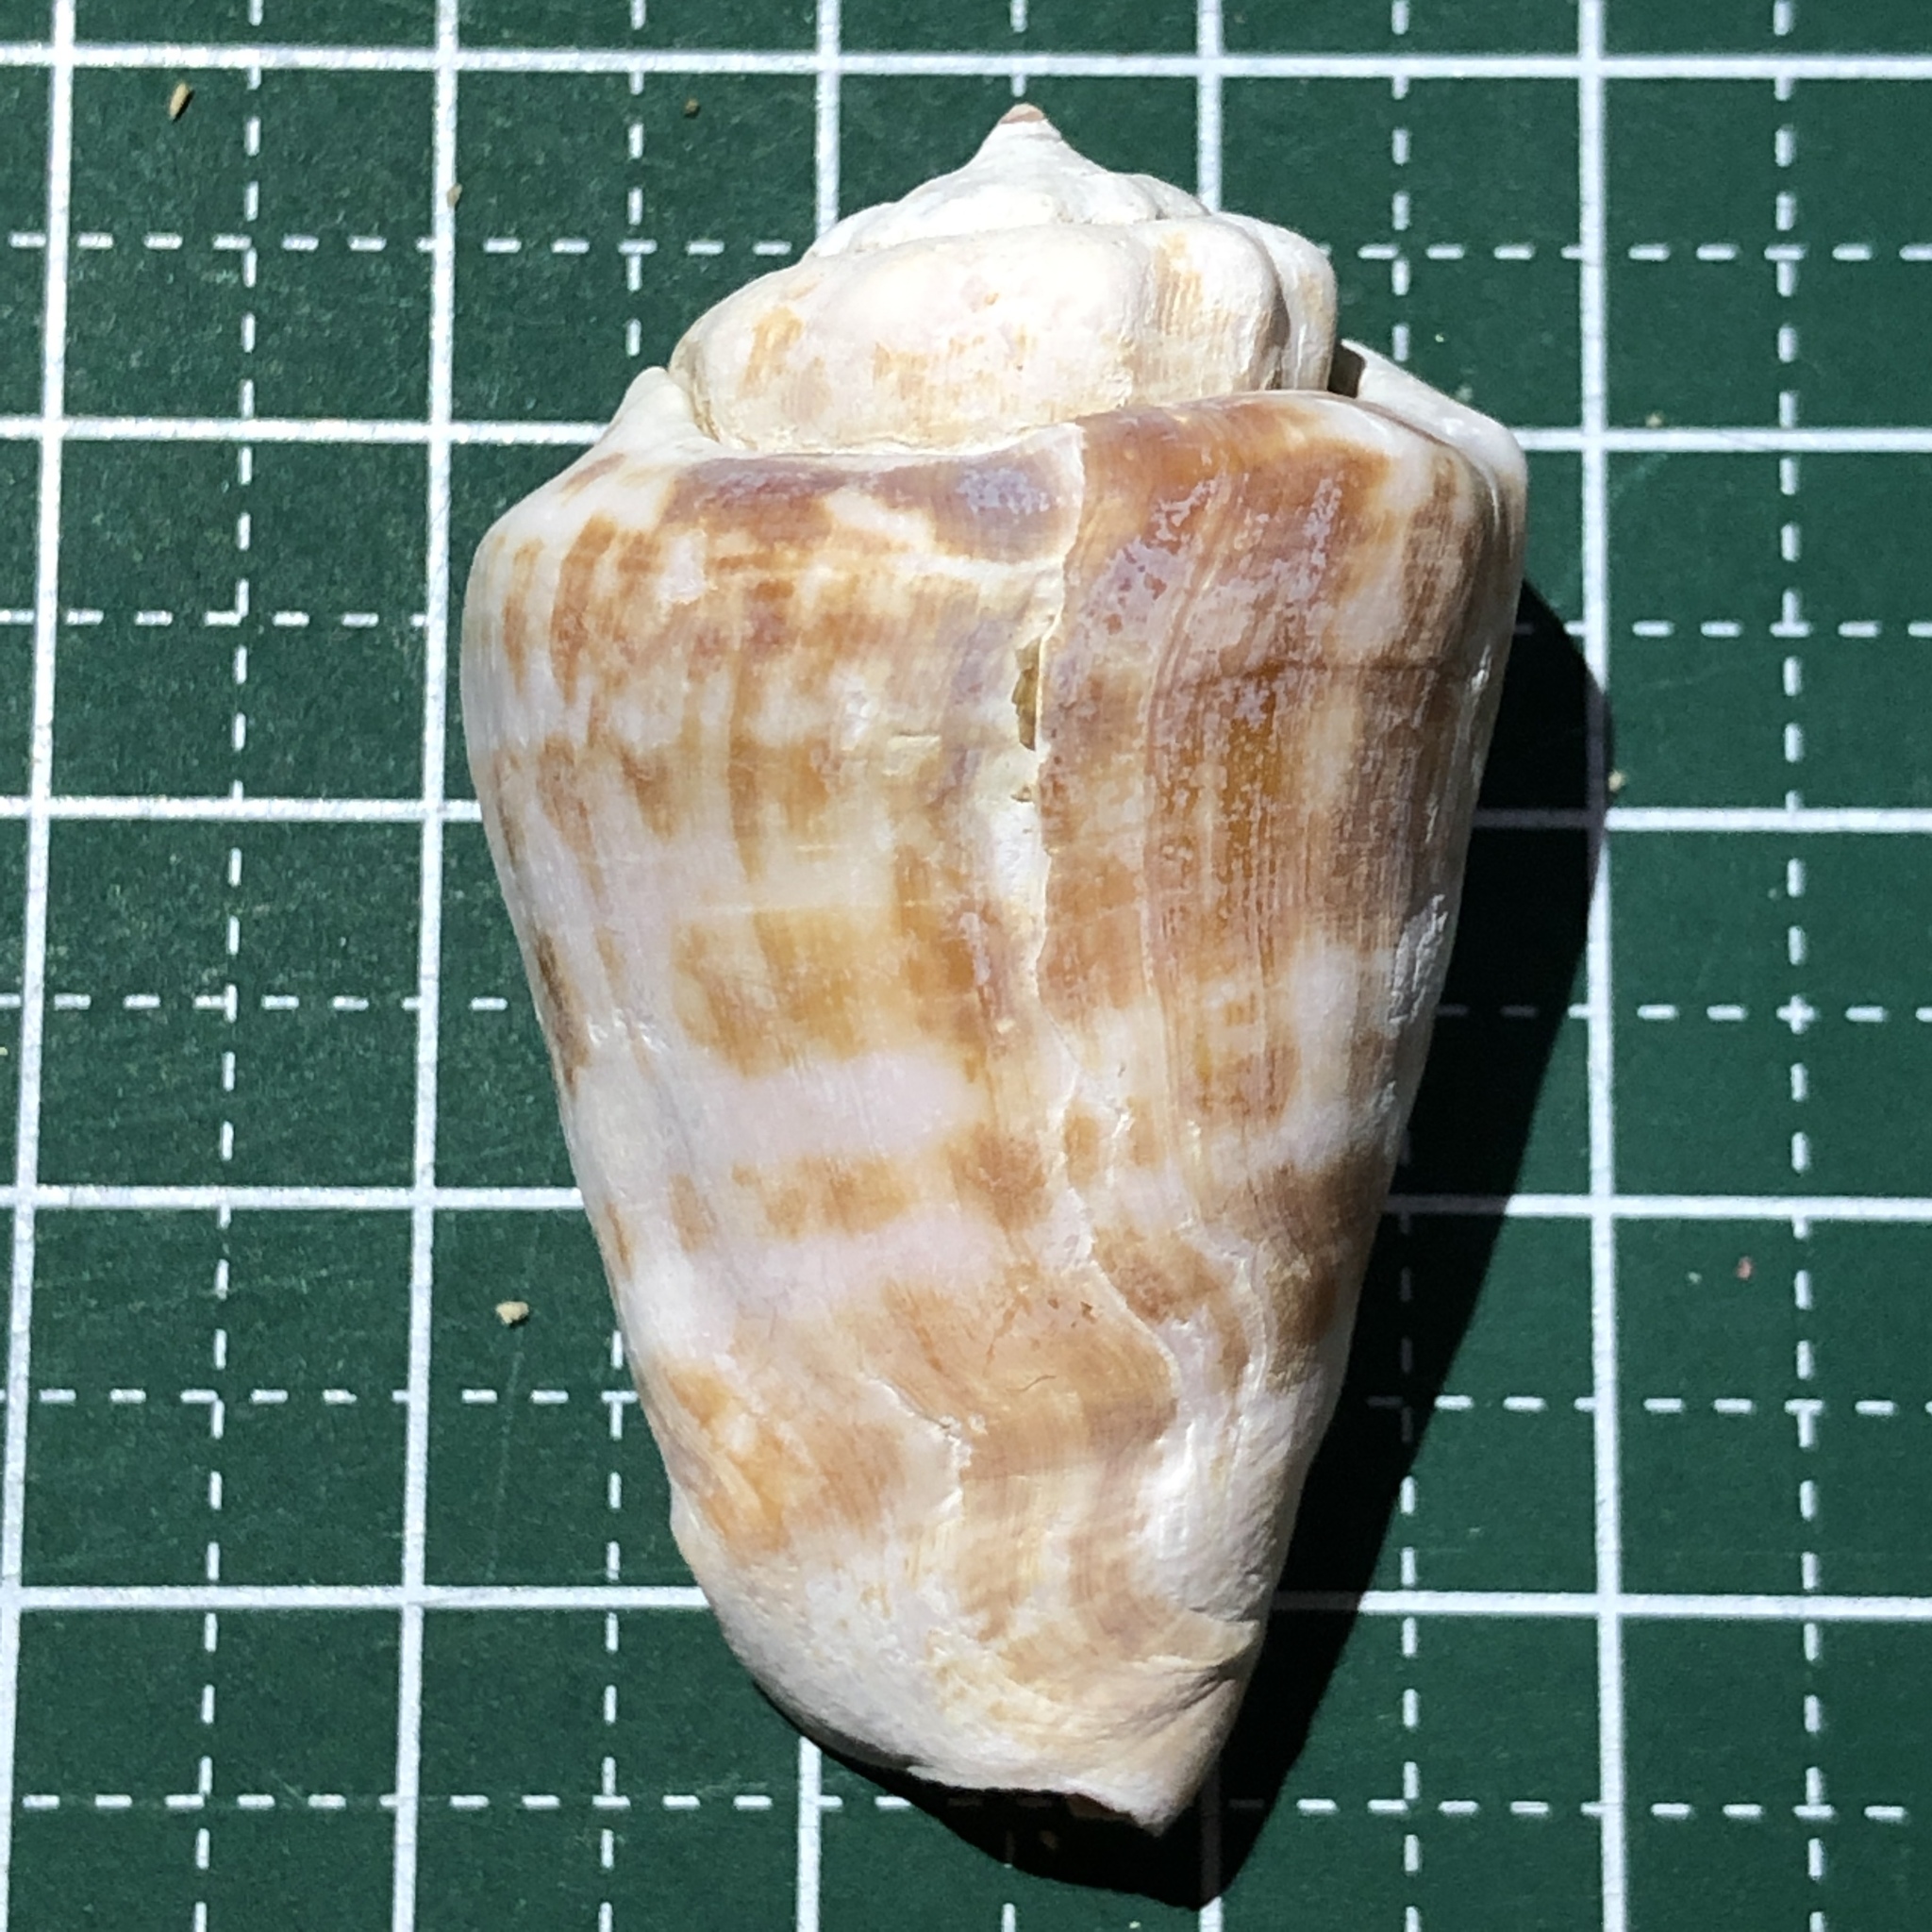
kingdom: Animalia
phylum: Mollusca
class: Gastropoda
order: Littorinimorpha
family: Strombidae
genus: Conomurex
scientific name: Conomurex luhuanus
